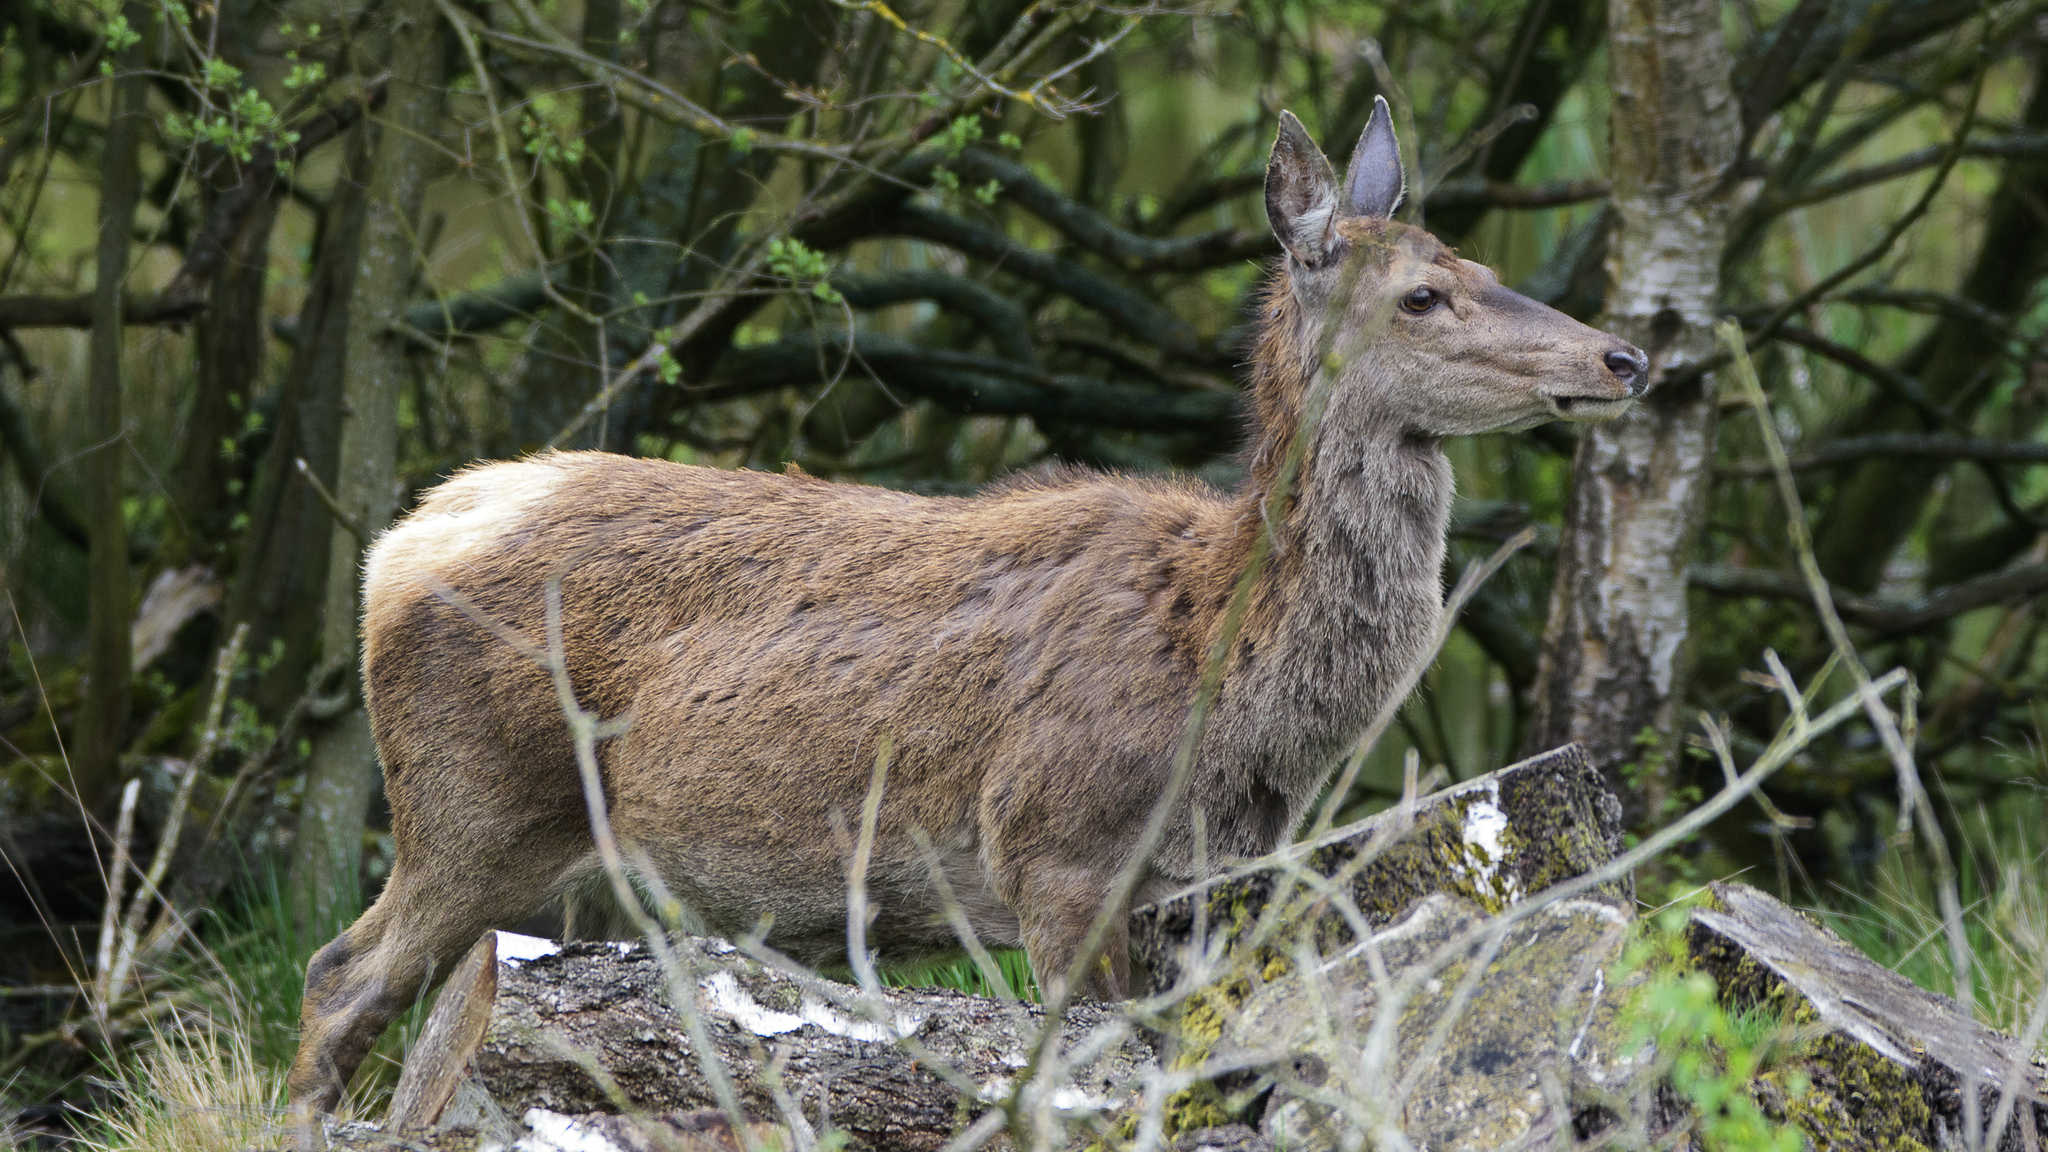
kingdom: Animalia
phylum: Chordata
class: Mammalia
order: Artiodactyla
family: Cervidae
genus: Cervus
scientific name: Cervus elaphus
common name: Red deer
